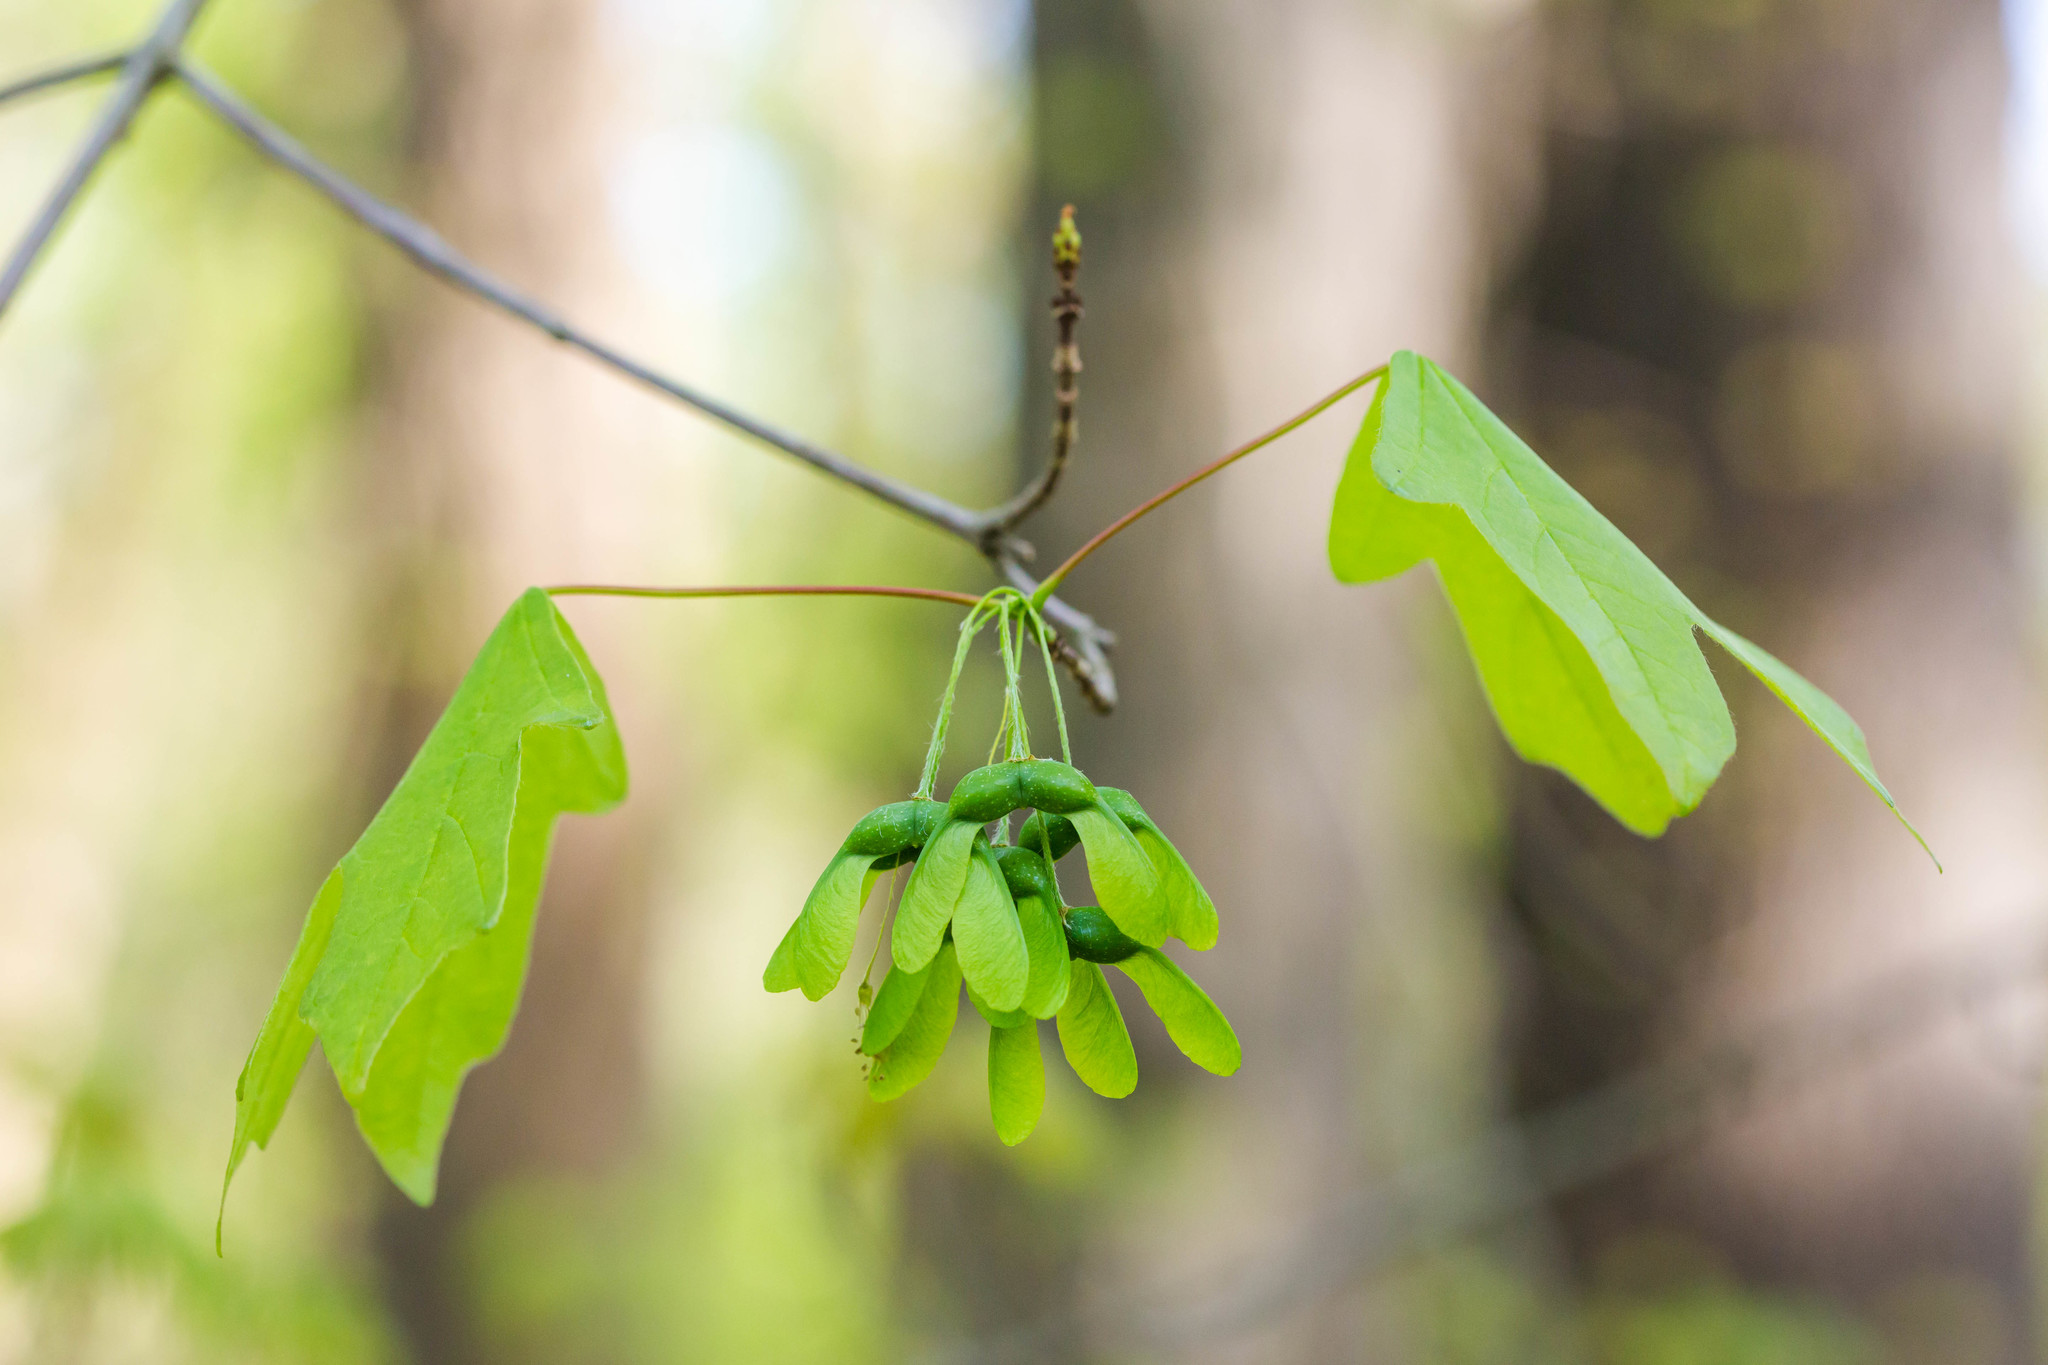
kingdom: Plantae
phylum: Tracheophyta
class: Magnoliopsida
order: Sapindales
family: Sapindaceae
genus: Acer
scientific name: Acer saccharum
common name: Sugar maple
